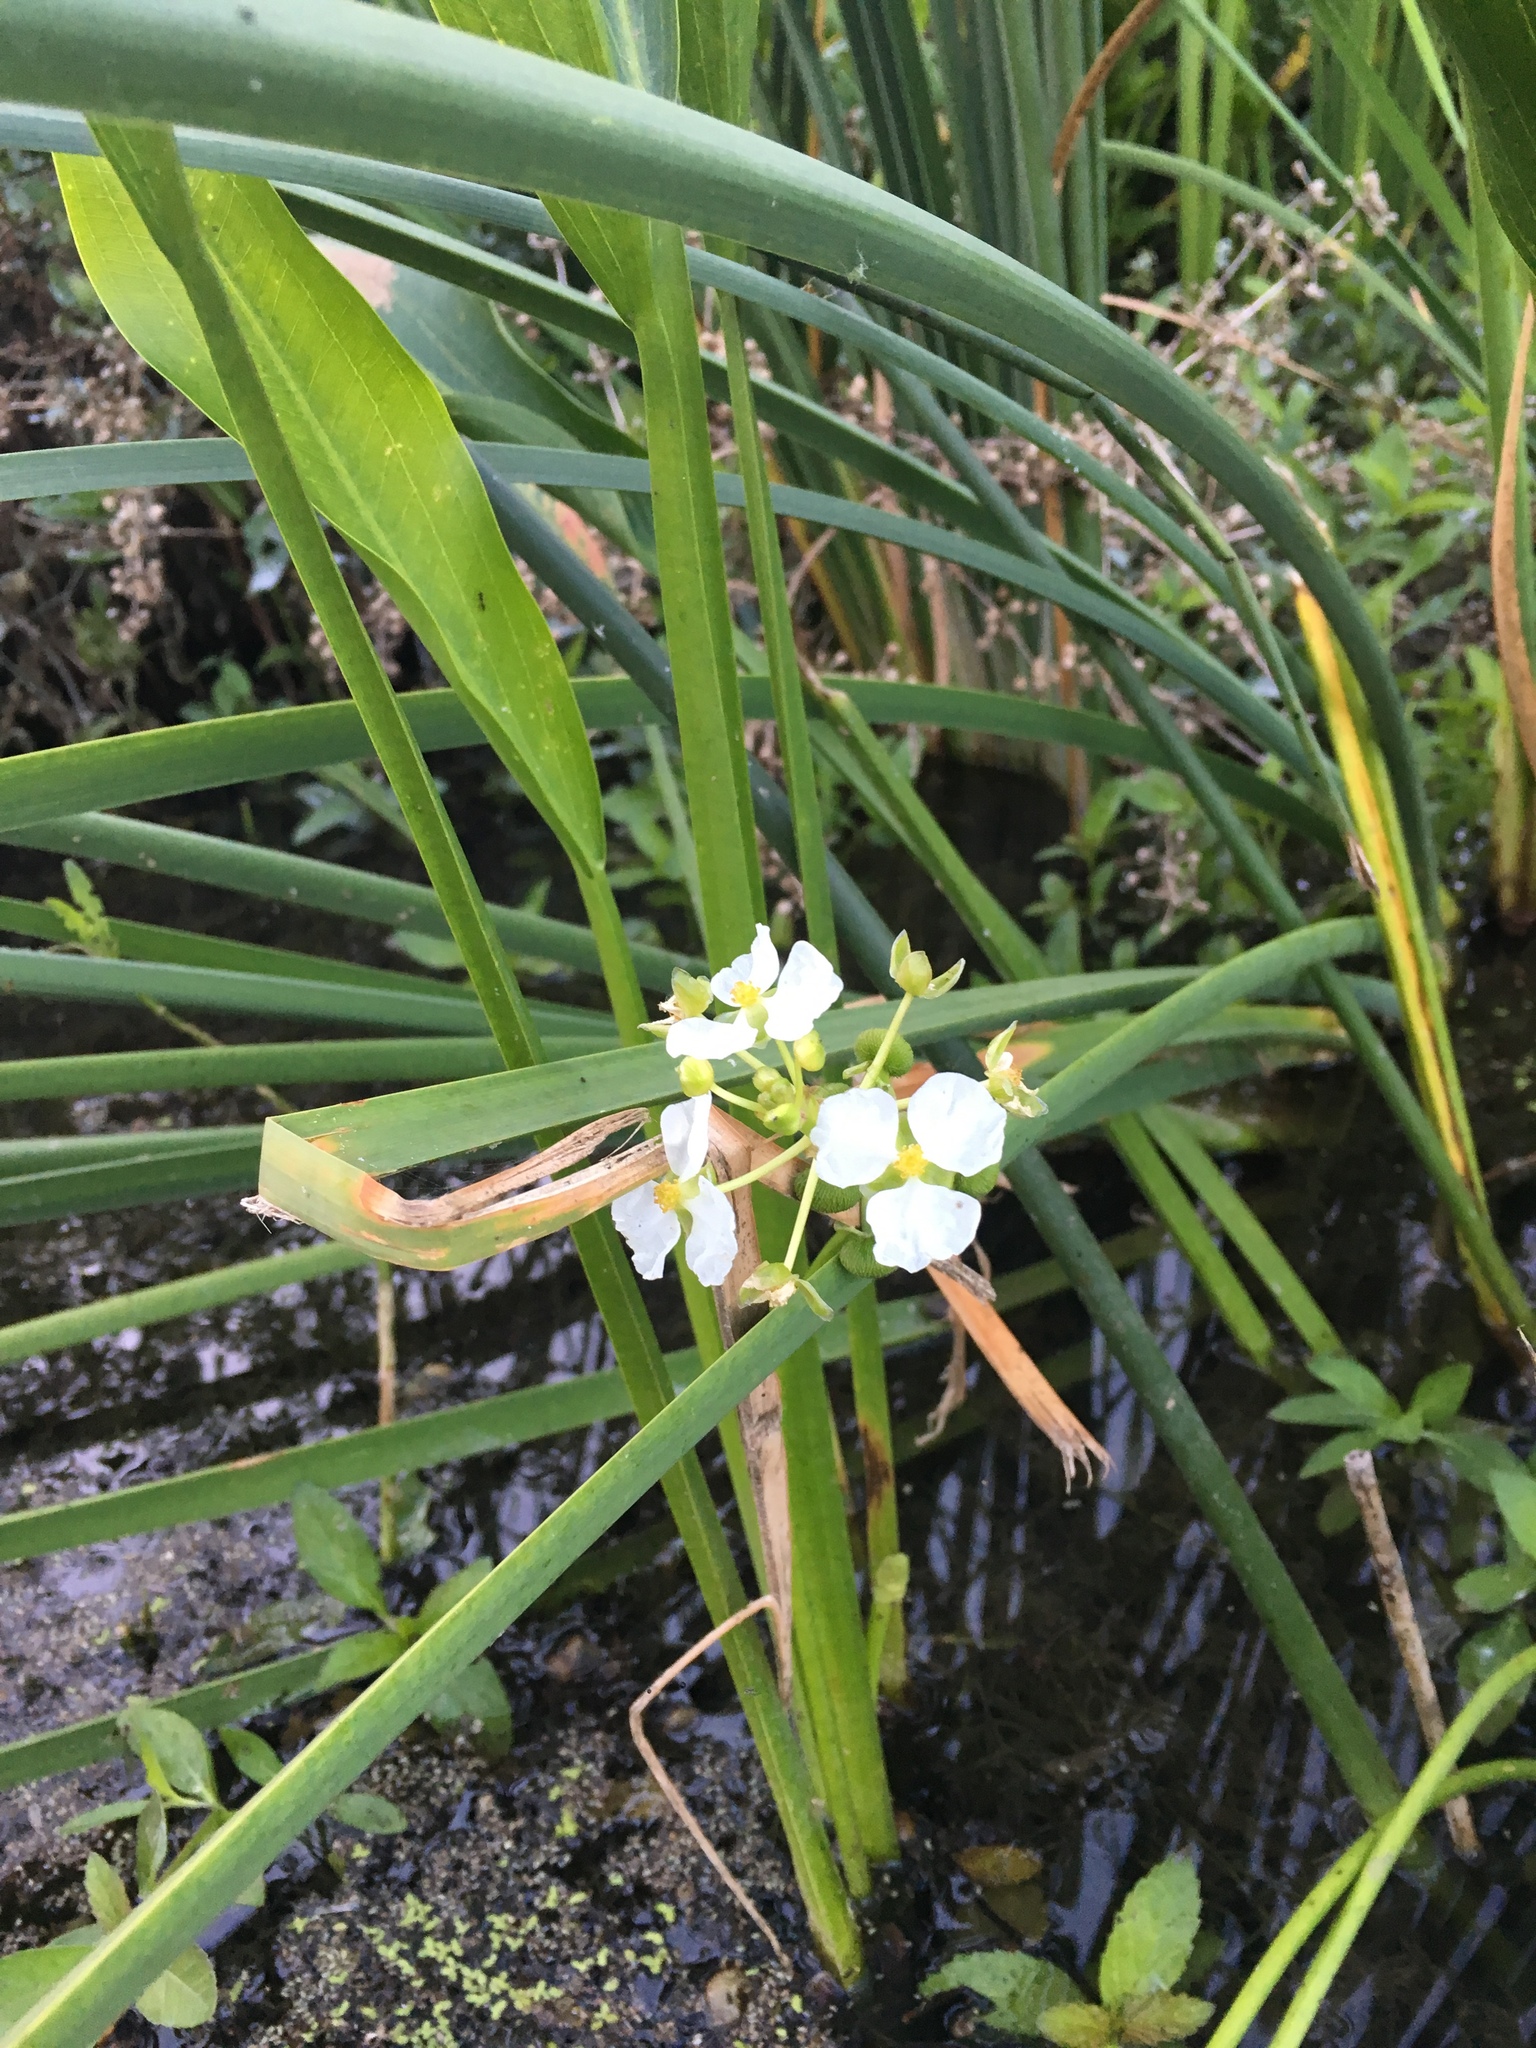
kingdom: Plantae
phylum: Tracheophyta
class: Liliopsida
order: Alismatales
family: Alismataceae
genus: Sagittaria
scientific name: Sagittaria platyphylla
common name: Broad-leaf arrowhead
